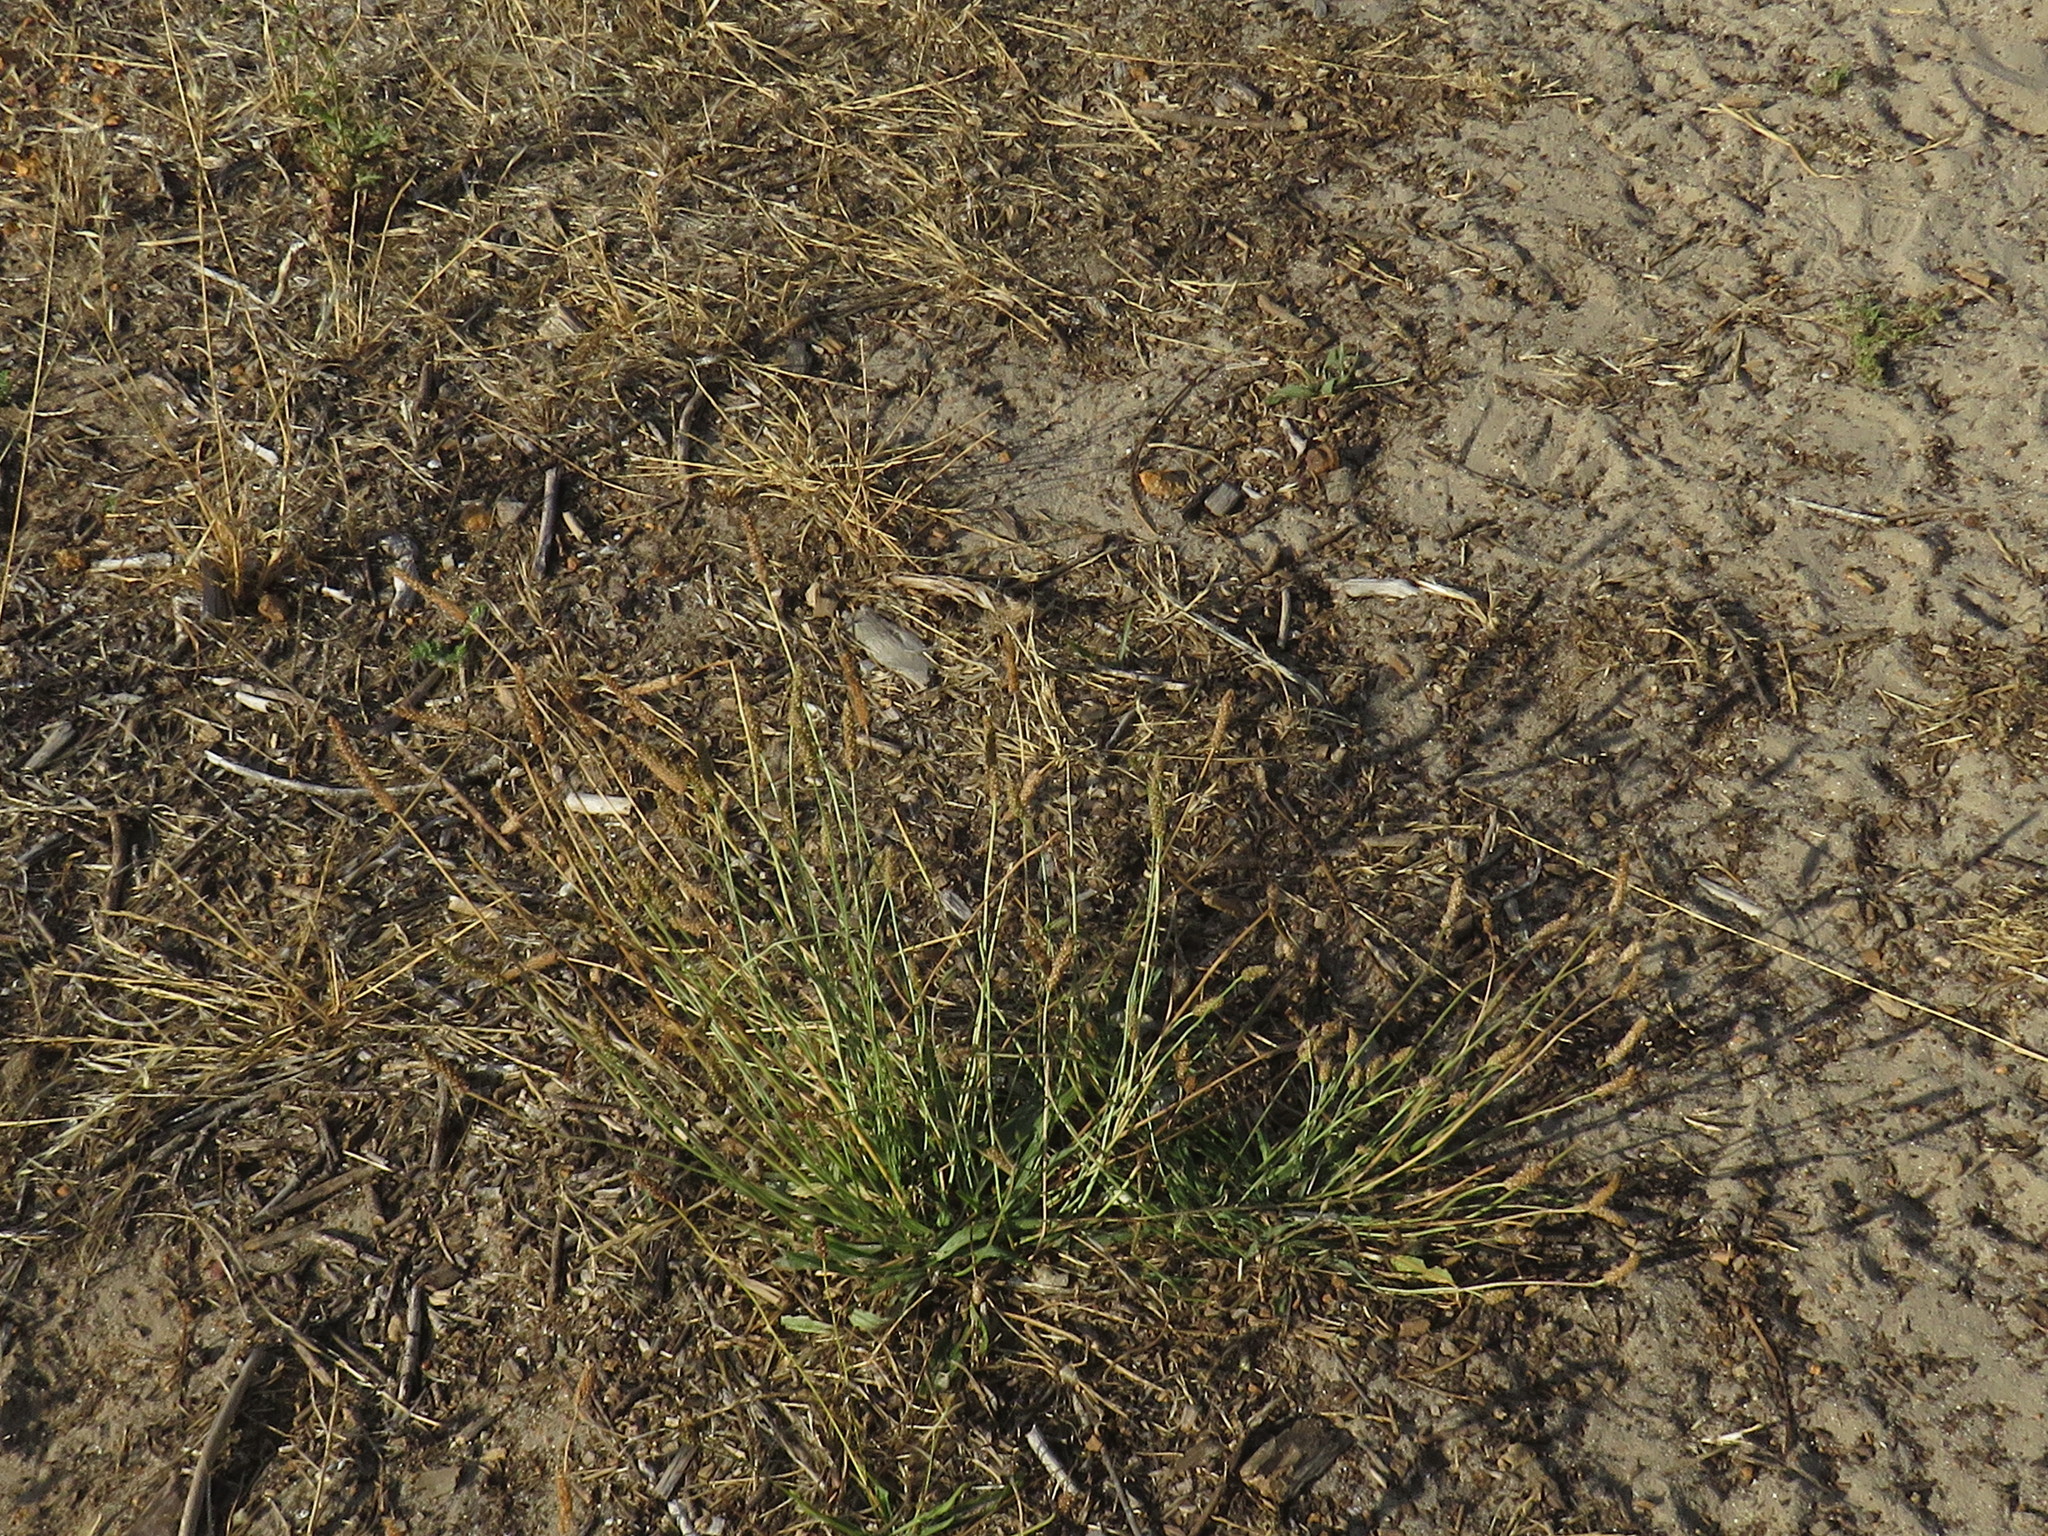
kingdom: Plantae
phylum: Tracheophyta
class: Magnoliopsida
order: Lamiales
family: Plantaginaceae
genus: Plantago
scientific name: Plantago lanceolata
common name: Ribwort plantain
